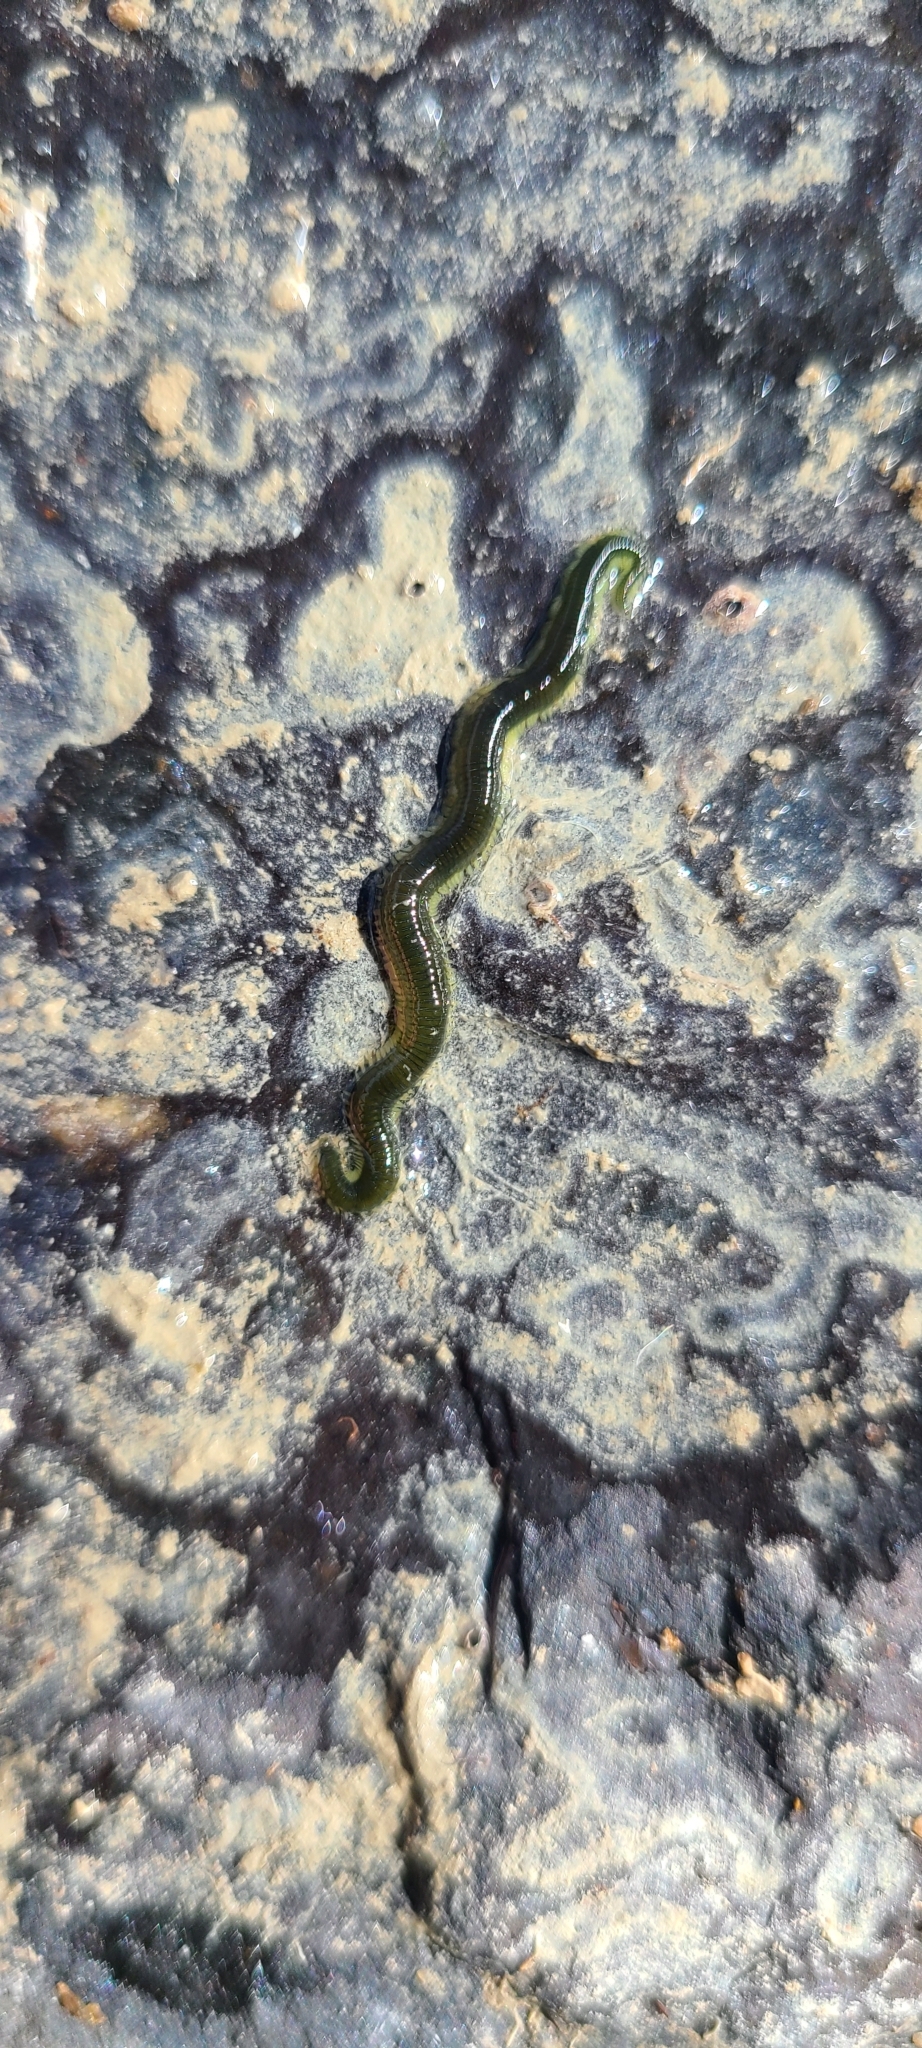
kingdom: Animalia
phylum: Annelida
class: Polychaeta
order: Phyllodocida
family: Phyllodocidae
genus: Eulalia
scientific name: Eulalia microphylla
